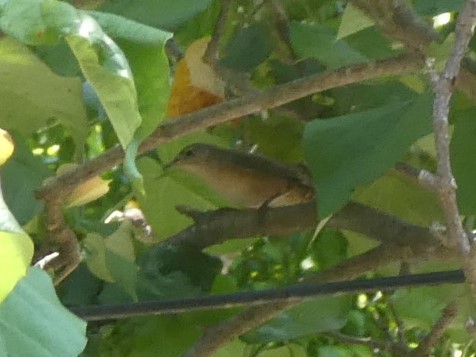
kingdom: Animalia
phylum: Chordata
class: Aves
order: Passeriformes
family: Troglodytidae
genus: Troglodytes
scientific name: Troglodytes aedon
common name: House wren
